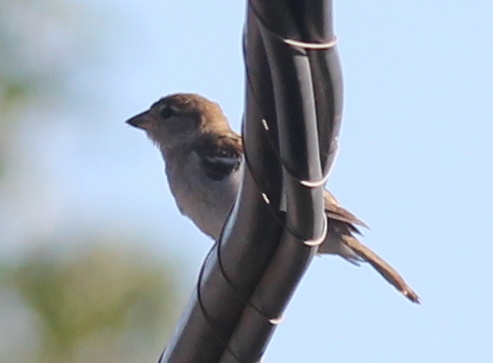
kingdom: Animalia
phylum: Chordata
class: Aves
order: Passeriformes
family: Passeridae
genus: Passer
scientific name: Passer domesticus
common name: House sparrow
